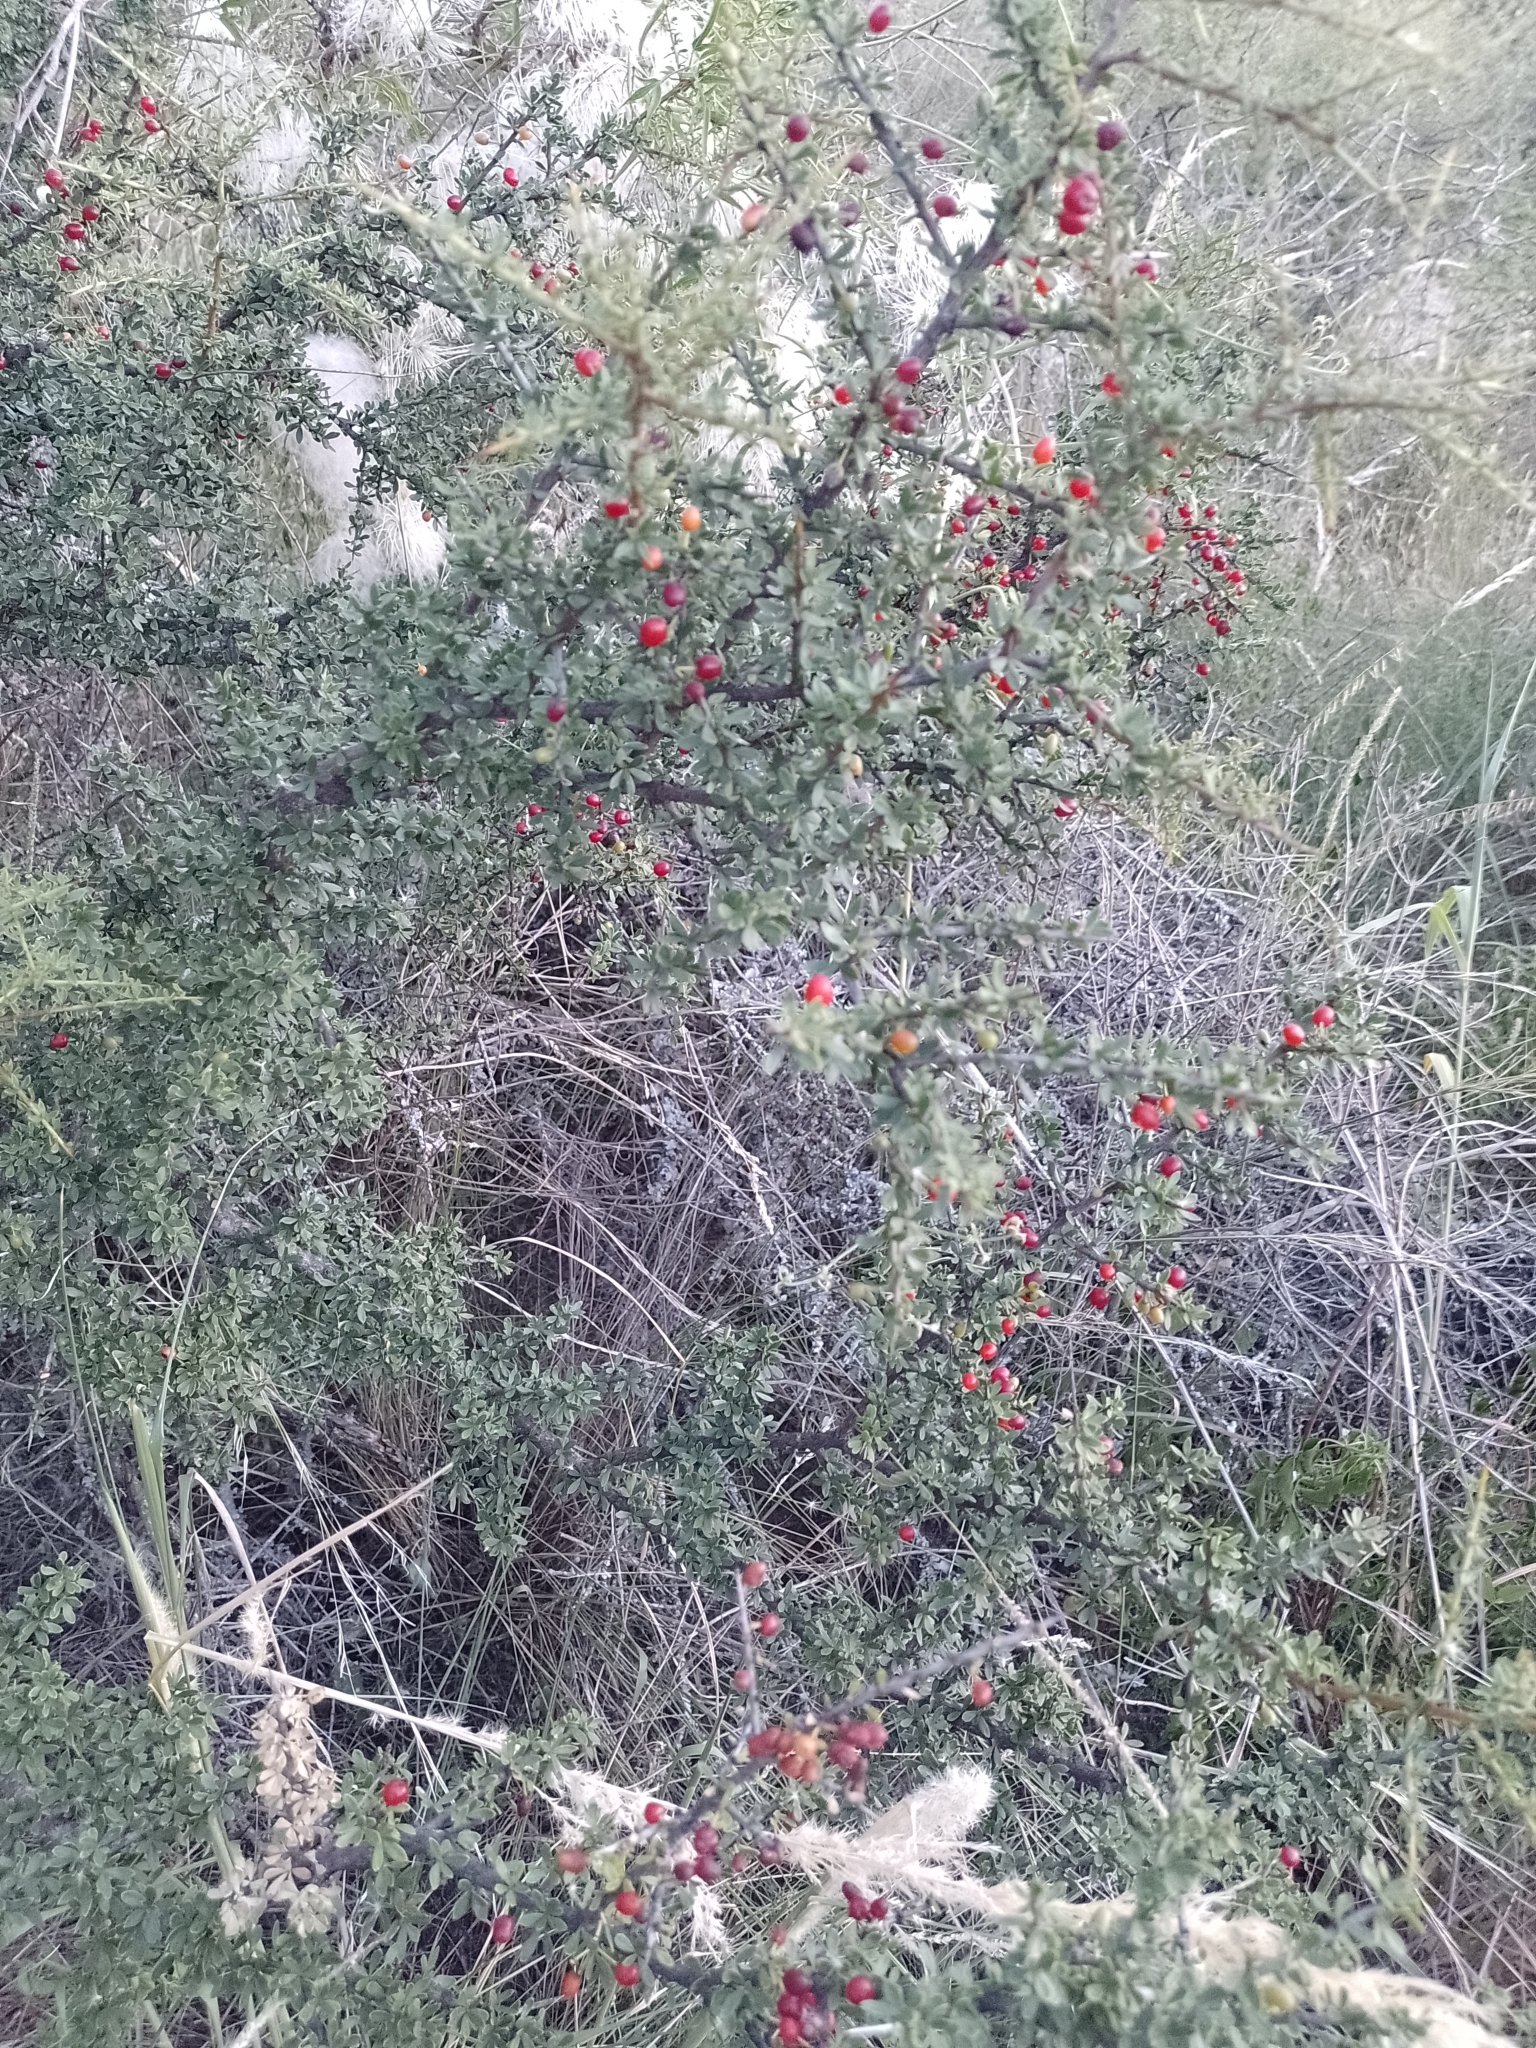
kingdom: Plantae
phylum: Tracheophyta
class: Magnoliopsida
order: Rosales
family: Rhamnaceae
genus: Condalia
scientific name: Condalia microphylla
